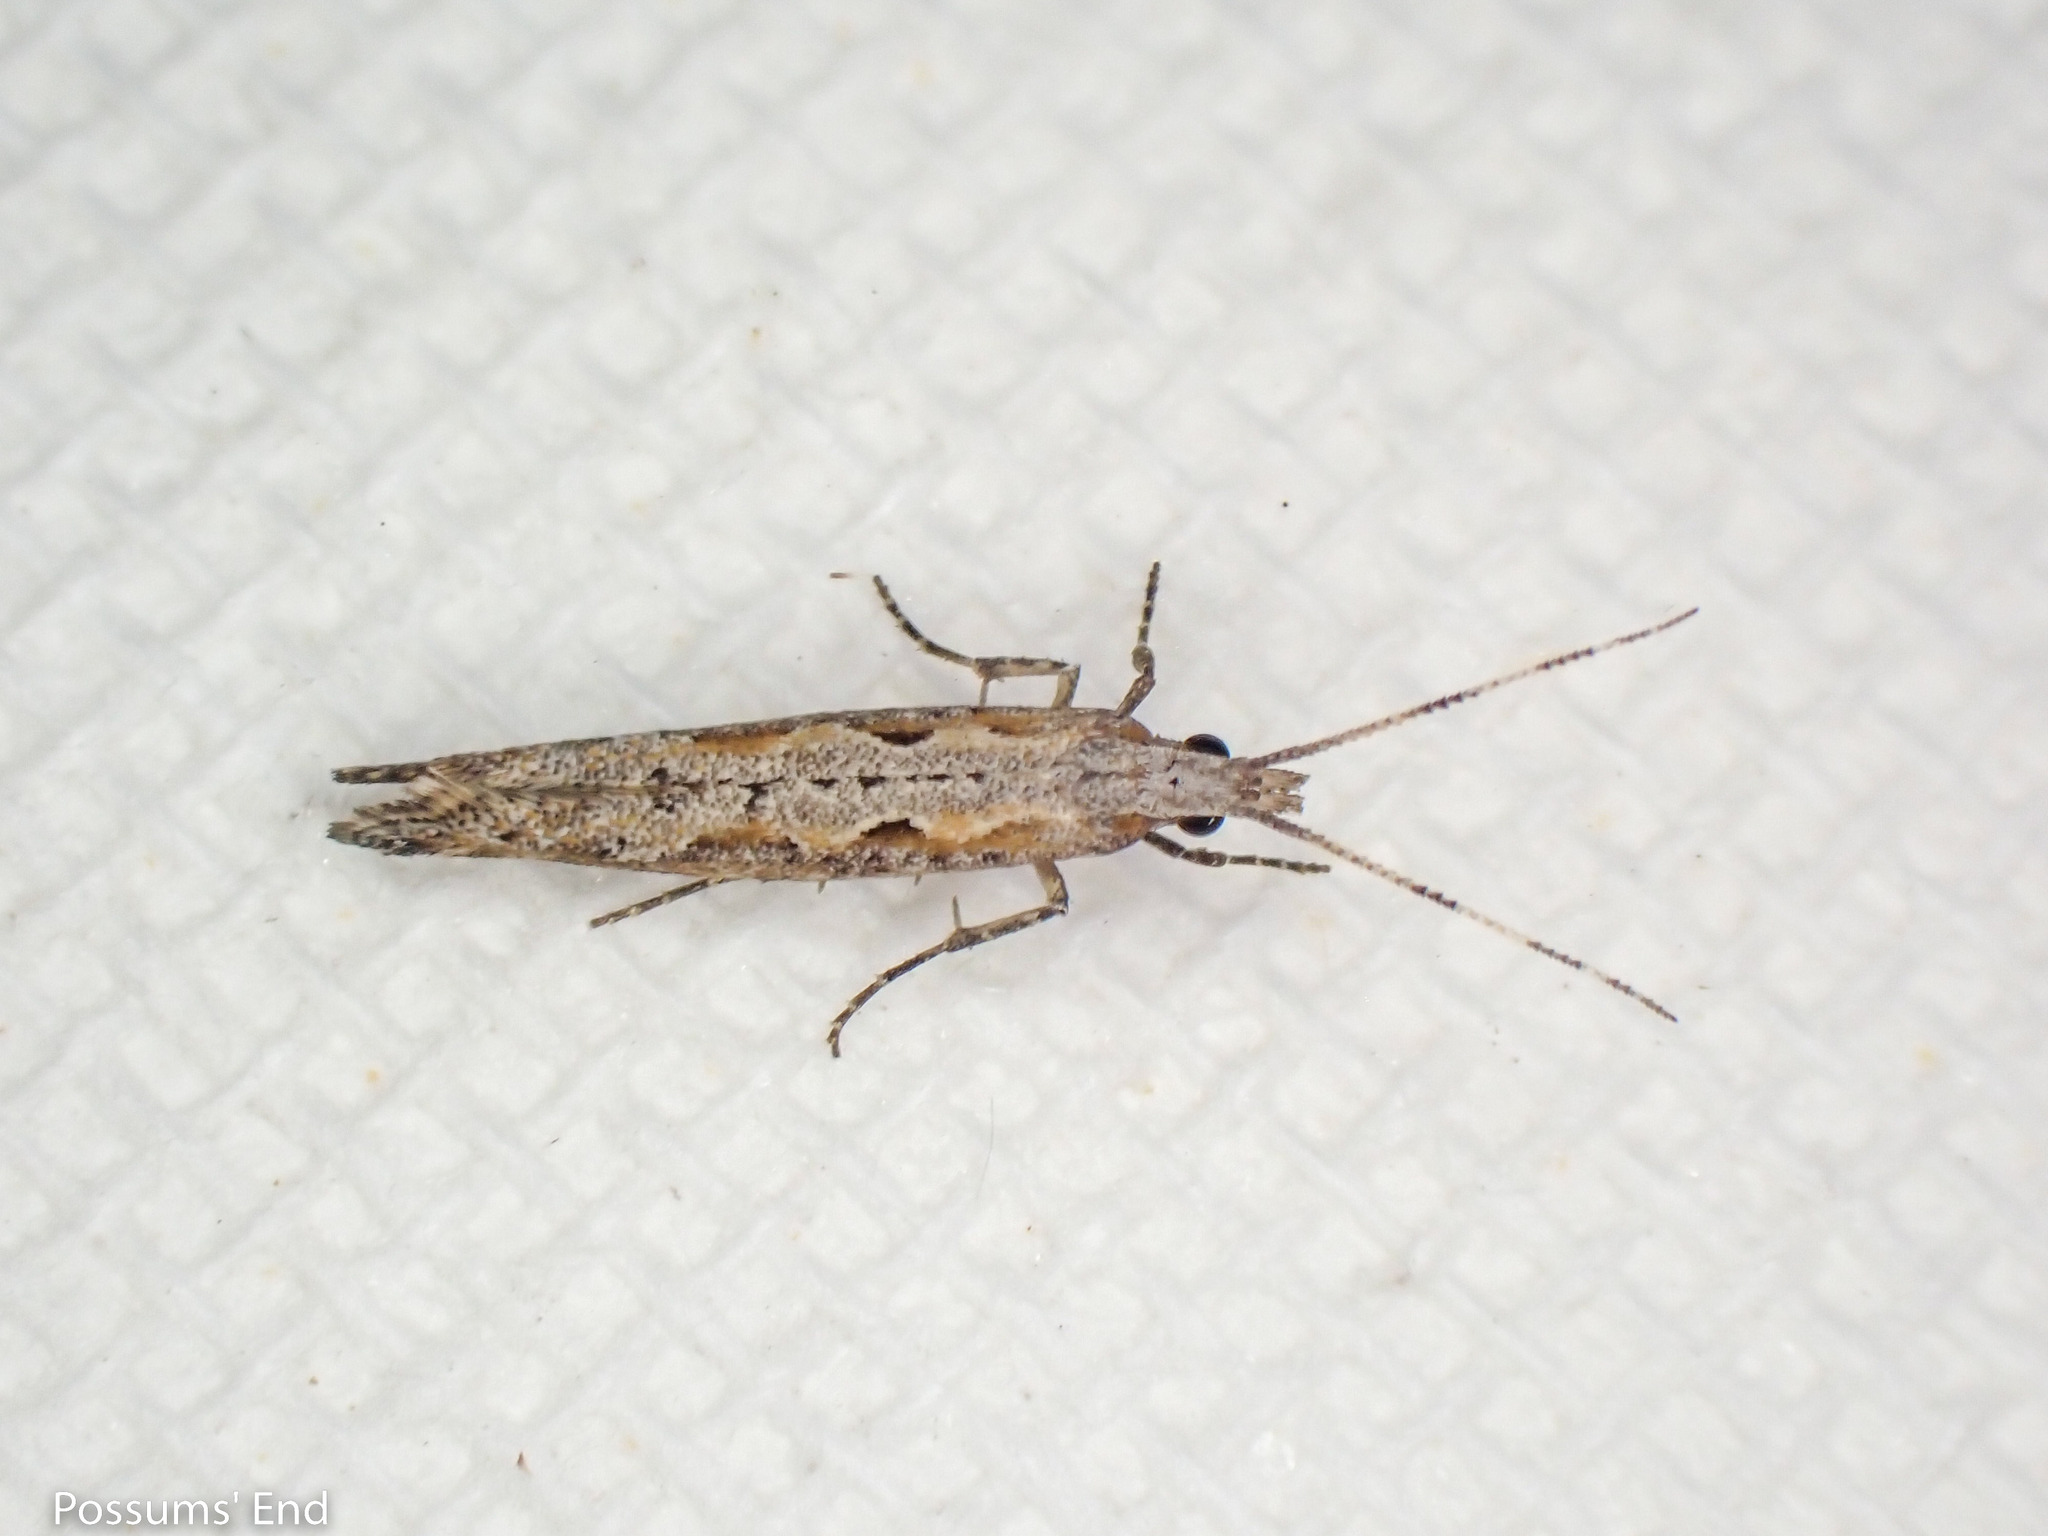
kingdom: Animalia
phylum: Arthropoda
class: Insecta
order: Lepidoptera
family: Plutellidae
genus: Plutella
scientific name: Plutella xylostella
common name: Diamond-back moth
